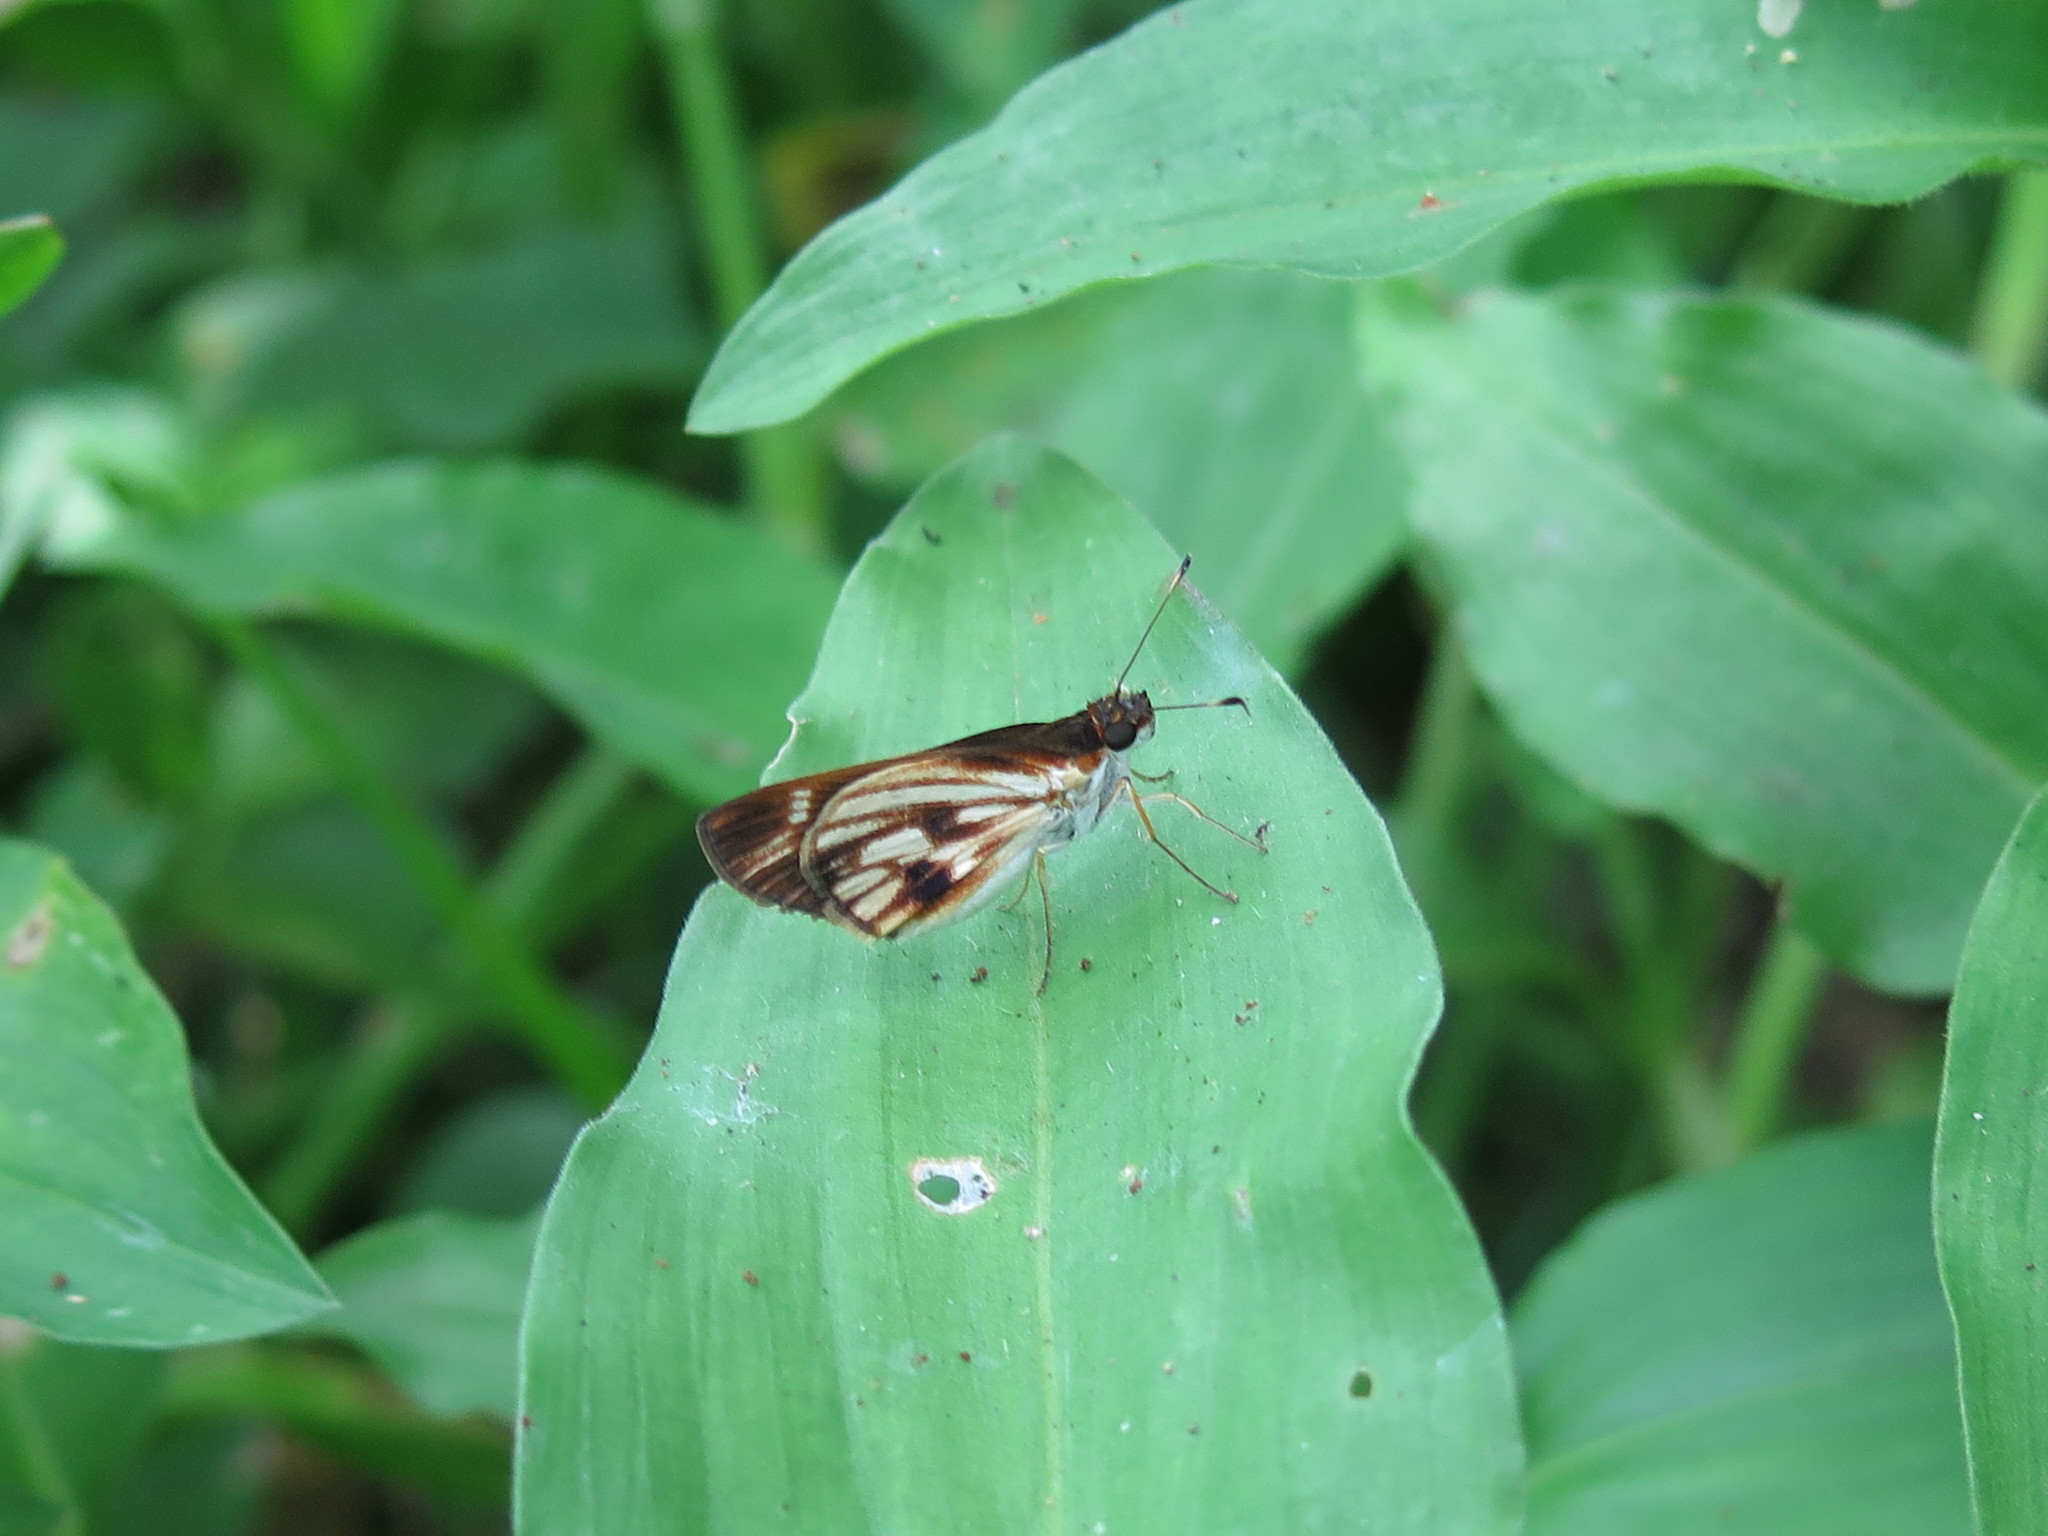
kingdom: Animalia
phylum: Arthropoda
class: Insecta
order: Lepidoptera
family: Hesperiidae
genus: Troyus
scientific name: Troyus fantasos
